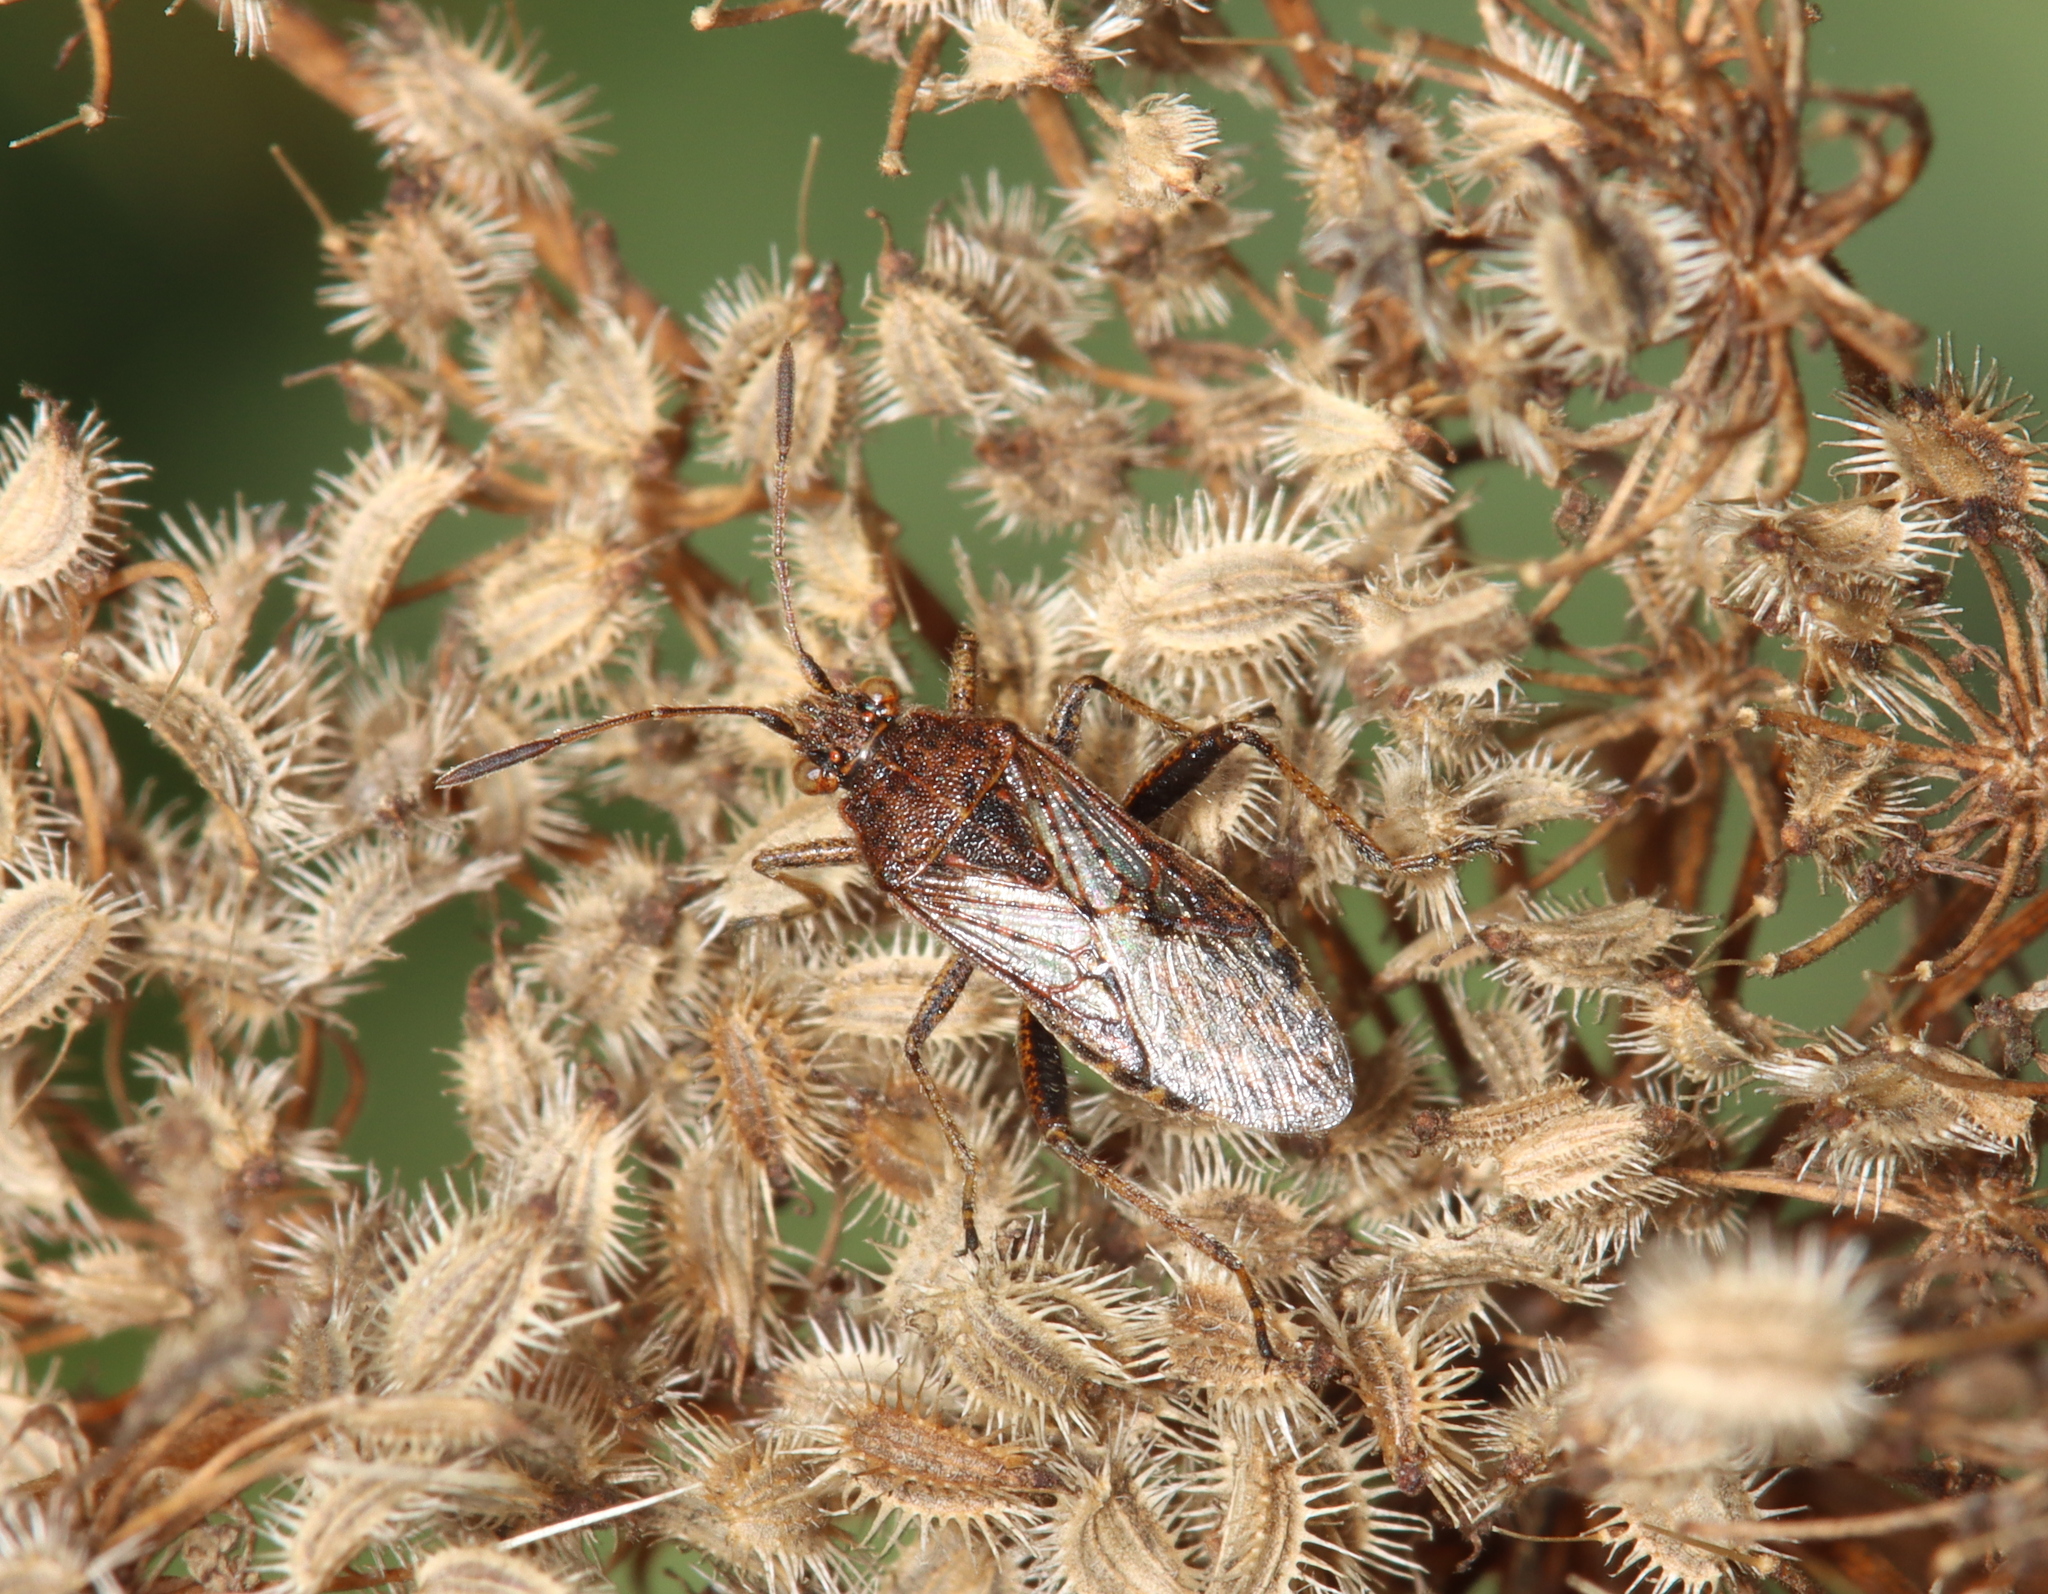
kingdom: Animalia
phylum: Arthropoda
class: Insecta
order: Hemiptera
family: Rhopalidae
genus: Stictopleurus
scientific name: Stictopleurus punctatonervosus
